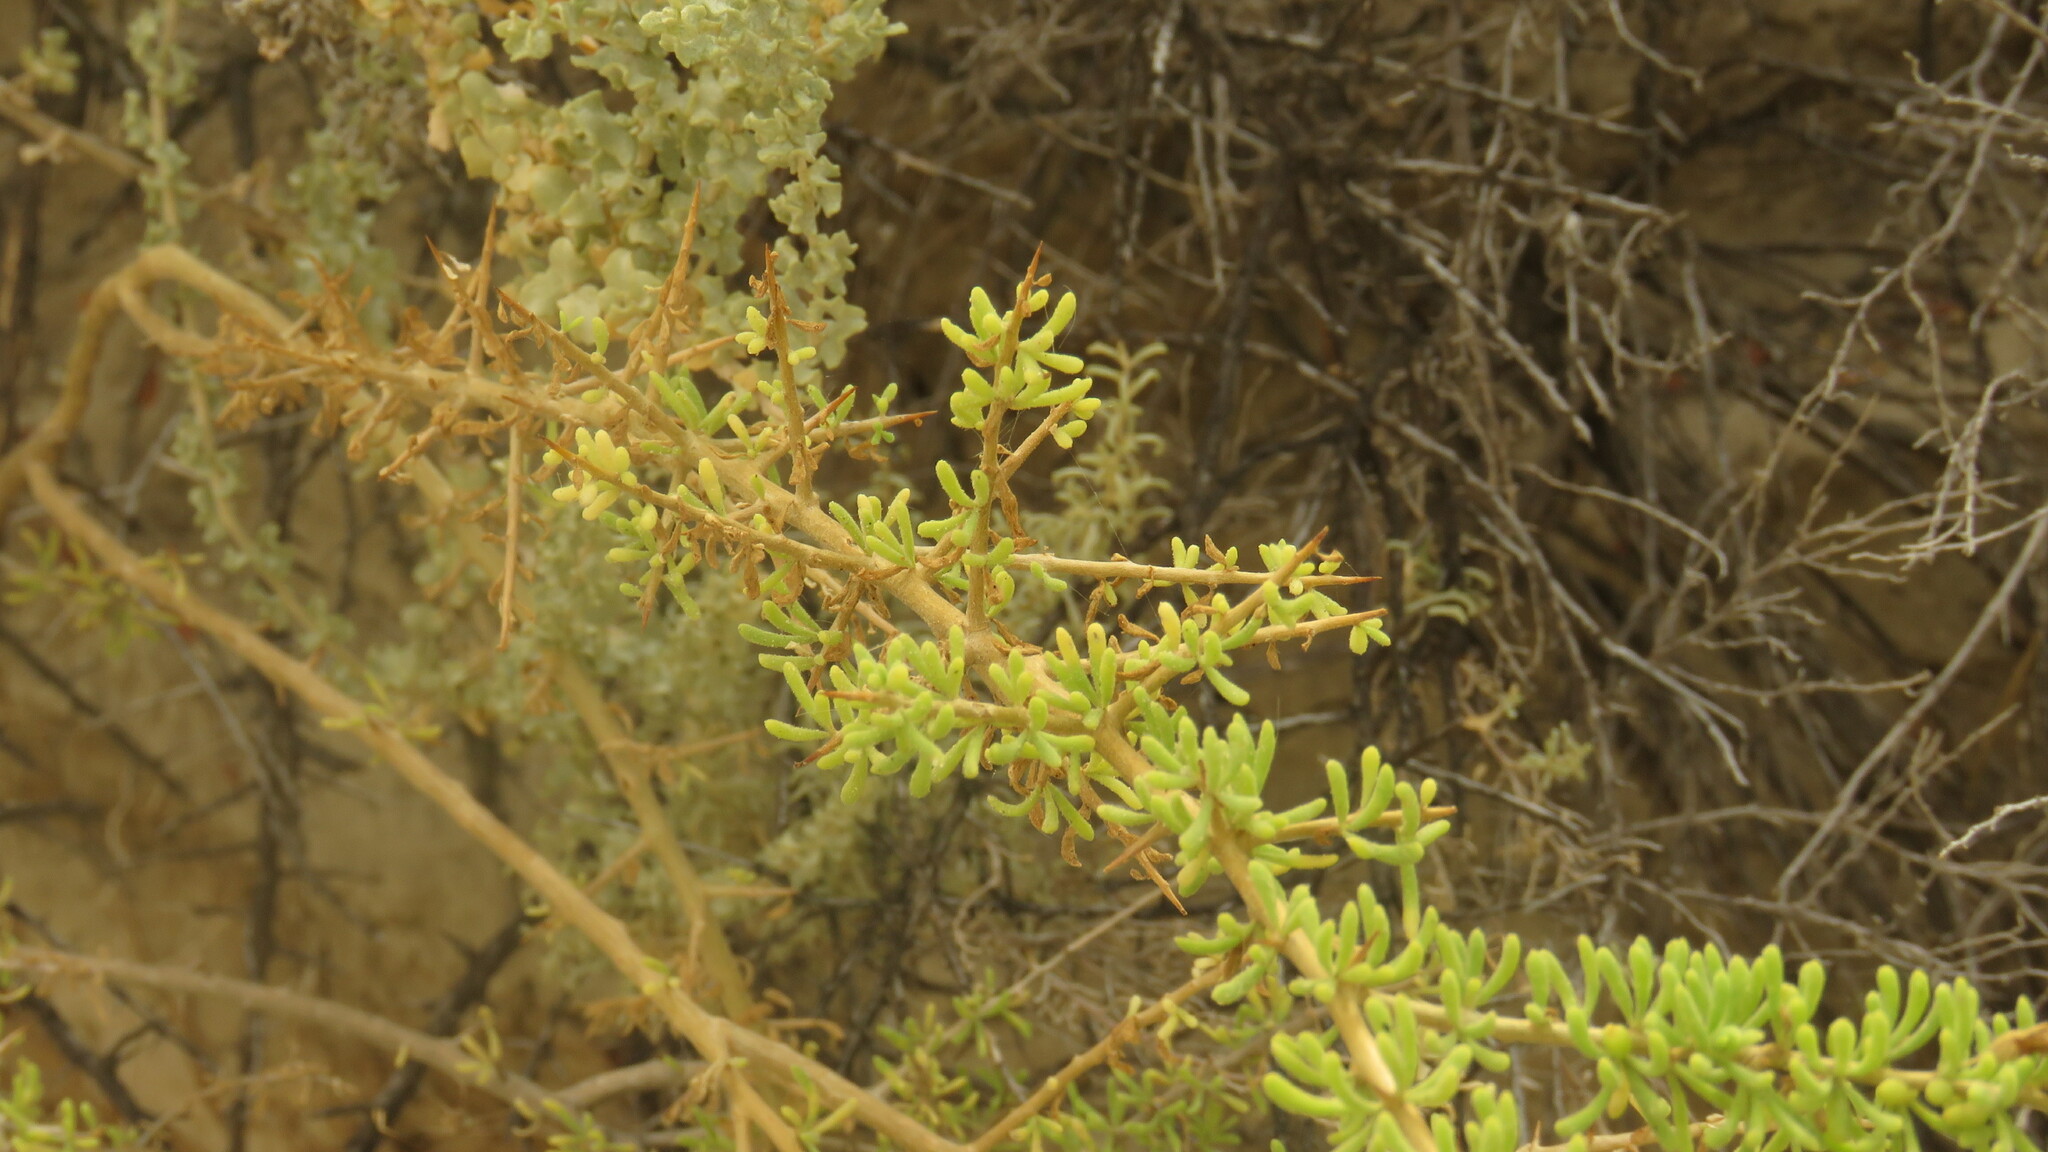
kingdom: Plantae
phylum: Tracheophyta
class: Magnoliopsida
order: Solanales
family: Solanaceae
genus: Lycium
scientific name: Lycium infaustum
